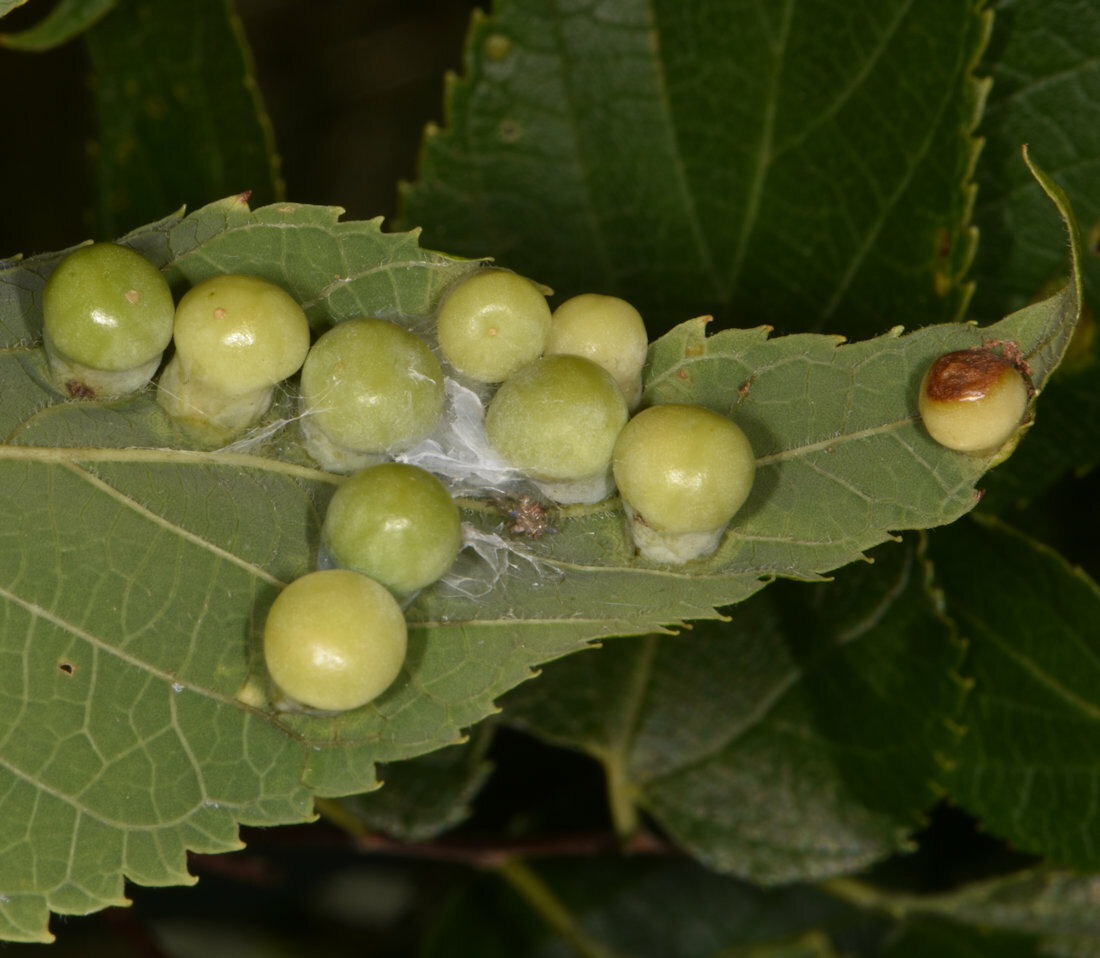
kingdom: Animalia
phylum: Arthropoda
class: Insecta
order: Hemiptera
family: Aphalaridae
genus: Pachypsylla
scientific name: Pachypsylla celtidismamma
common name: Hackberry nipplegall psyllid
